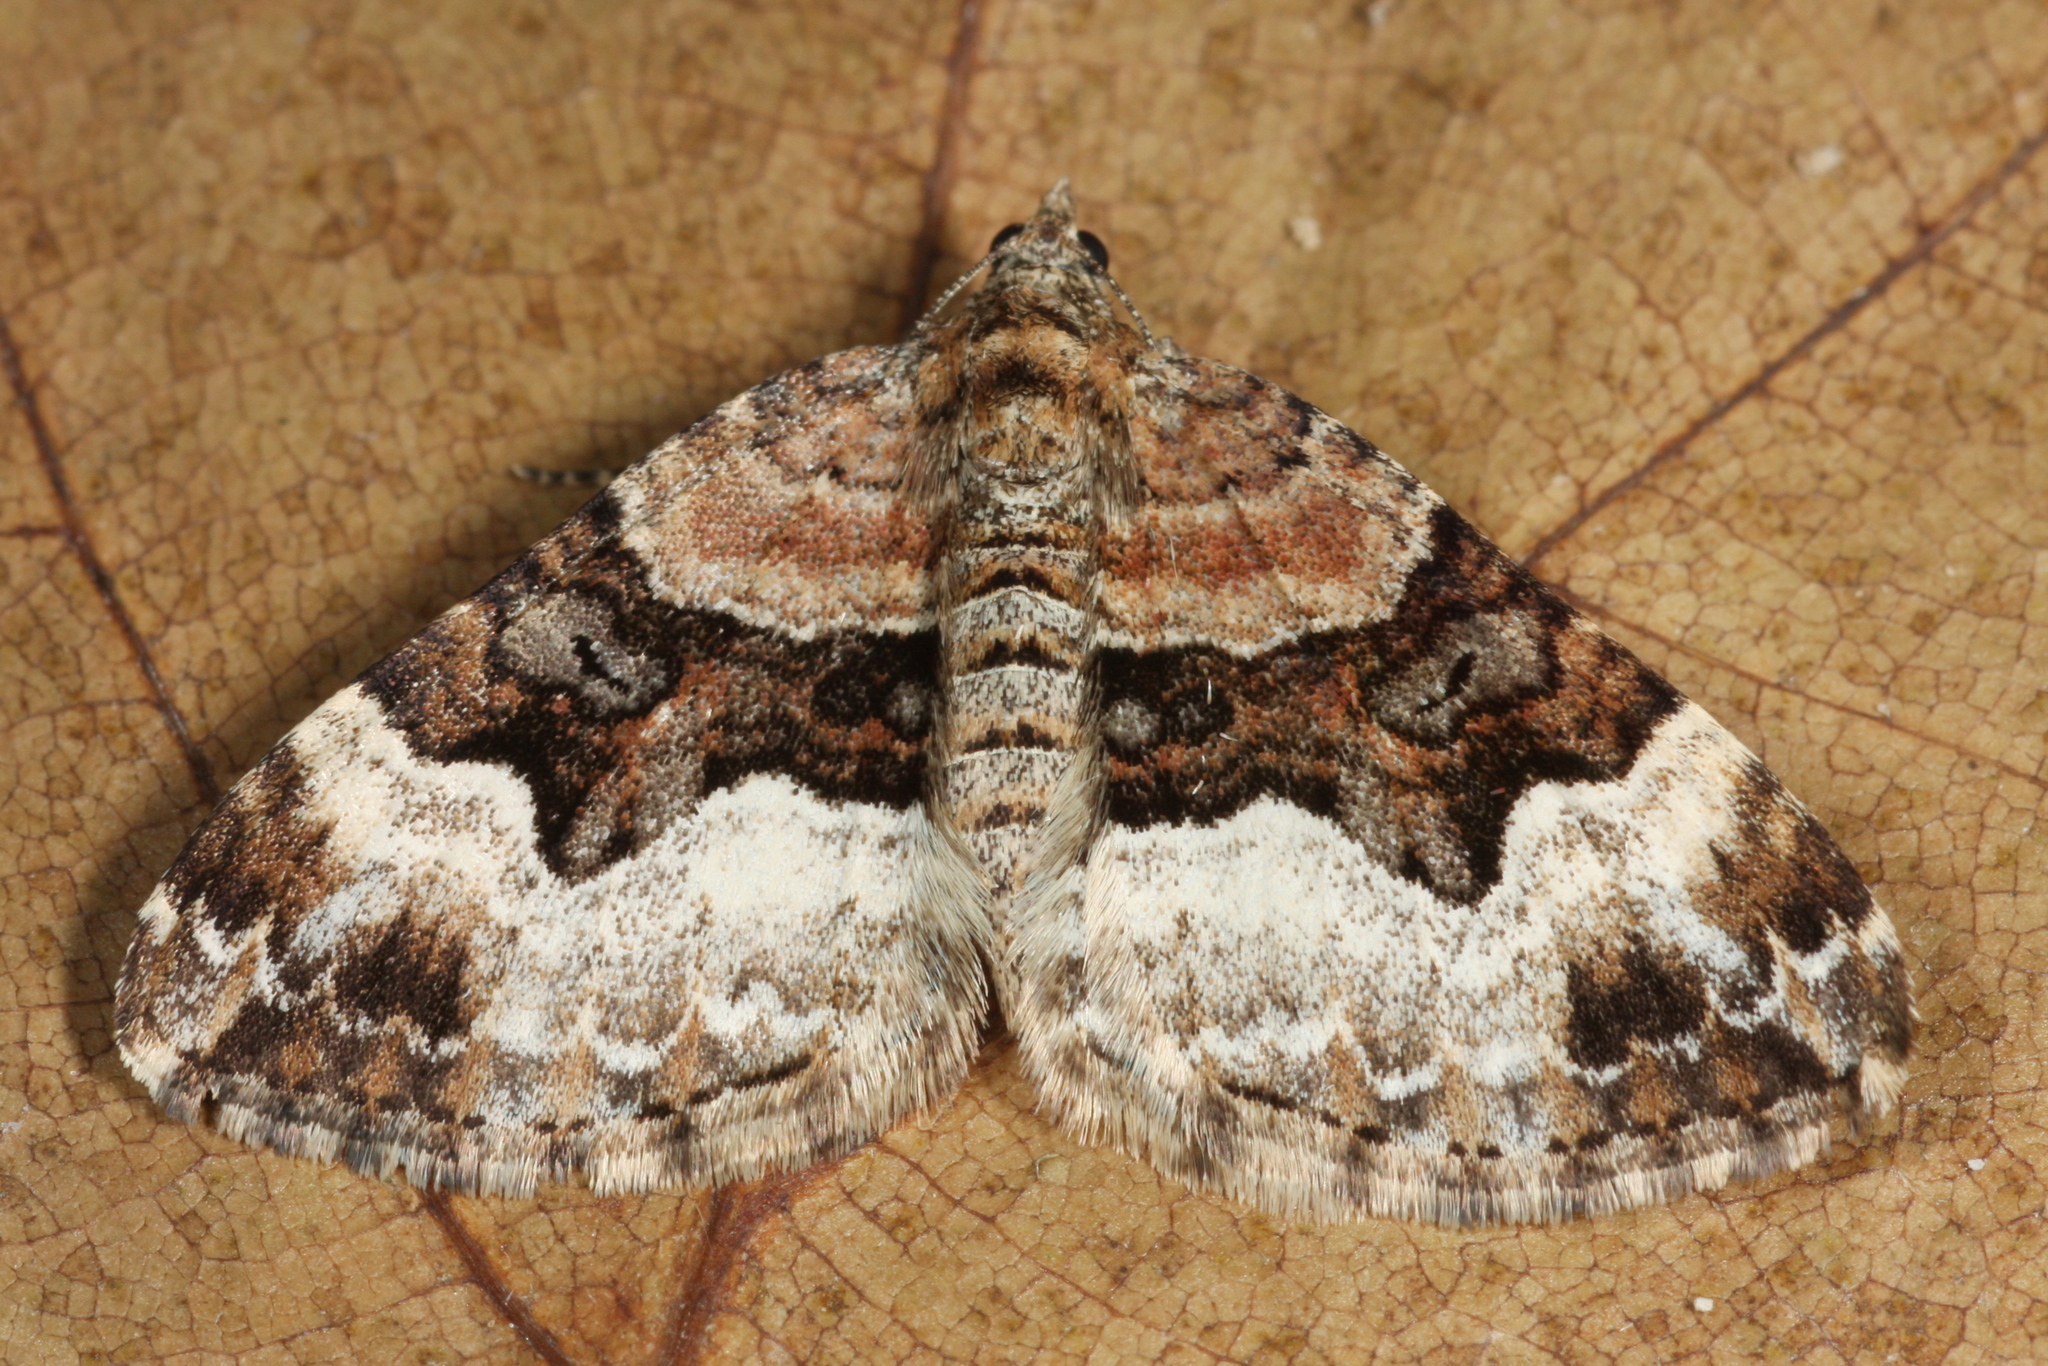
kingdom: Animalia
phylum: Arthropoda
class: Insecta
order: Lepidoptera
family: Geometridae
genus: Xanthorhoe
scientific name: Xanthorhoe biriviata
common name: Balsam carpet
